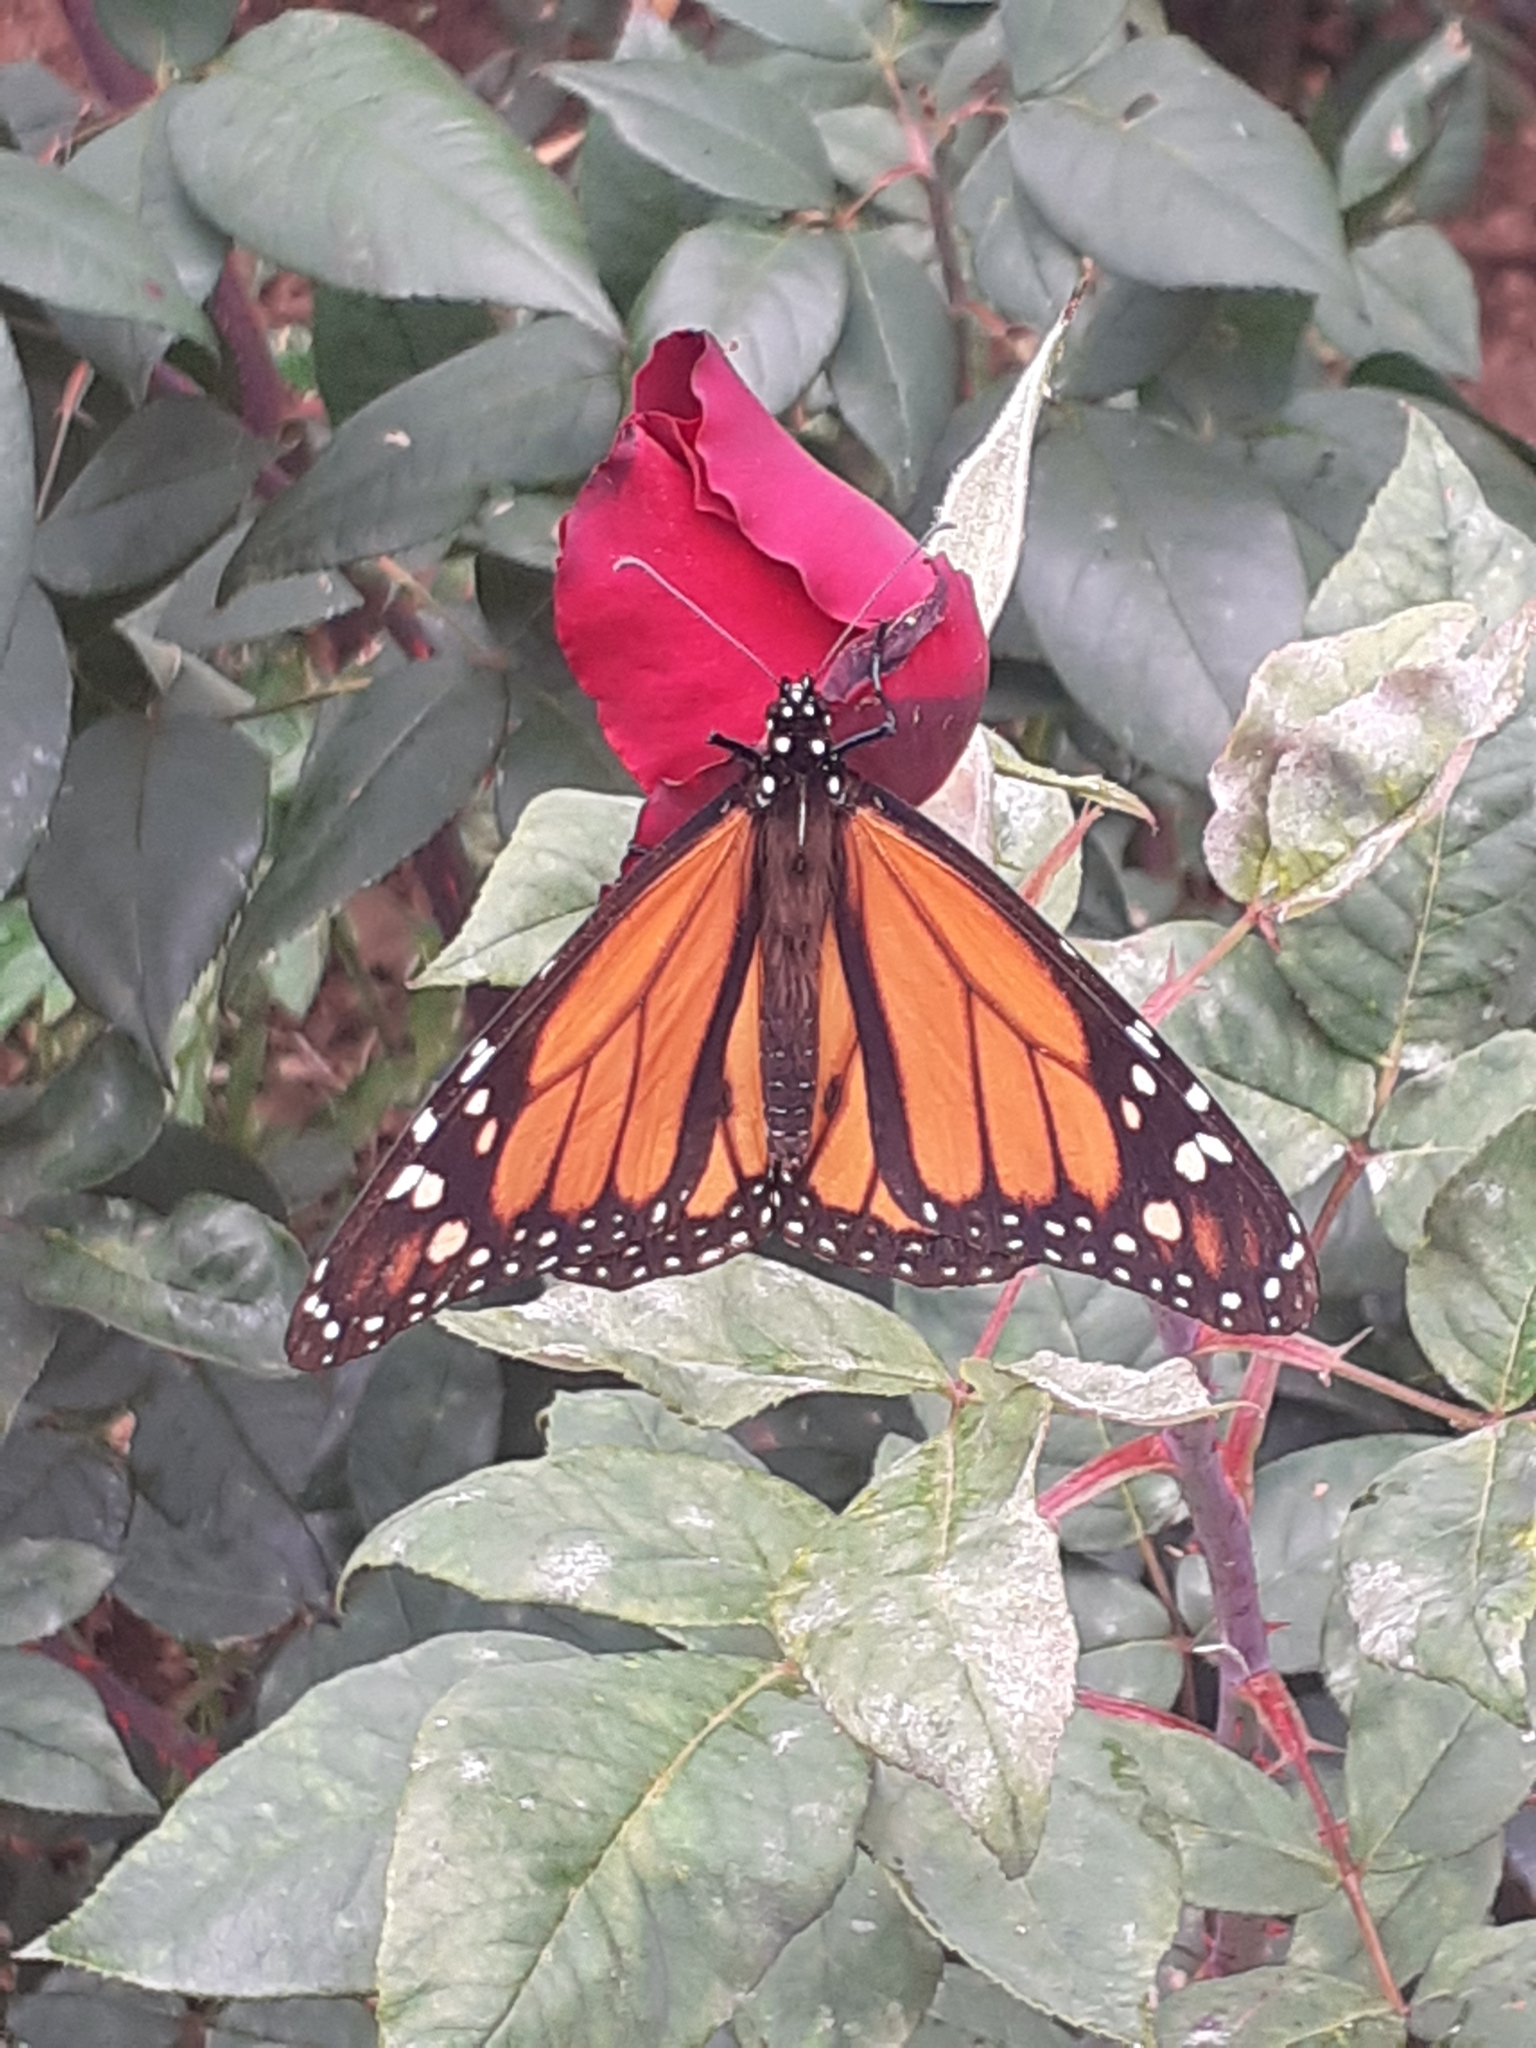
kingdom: Animalia
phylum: Arthropoda
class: Insecta
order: Lepidoptera
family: Nymphalidae
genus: Danaus
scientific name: Danaus plexippus
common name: Monarch
